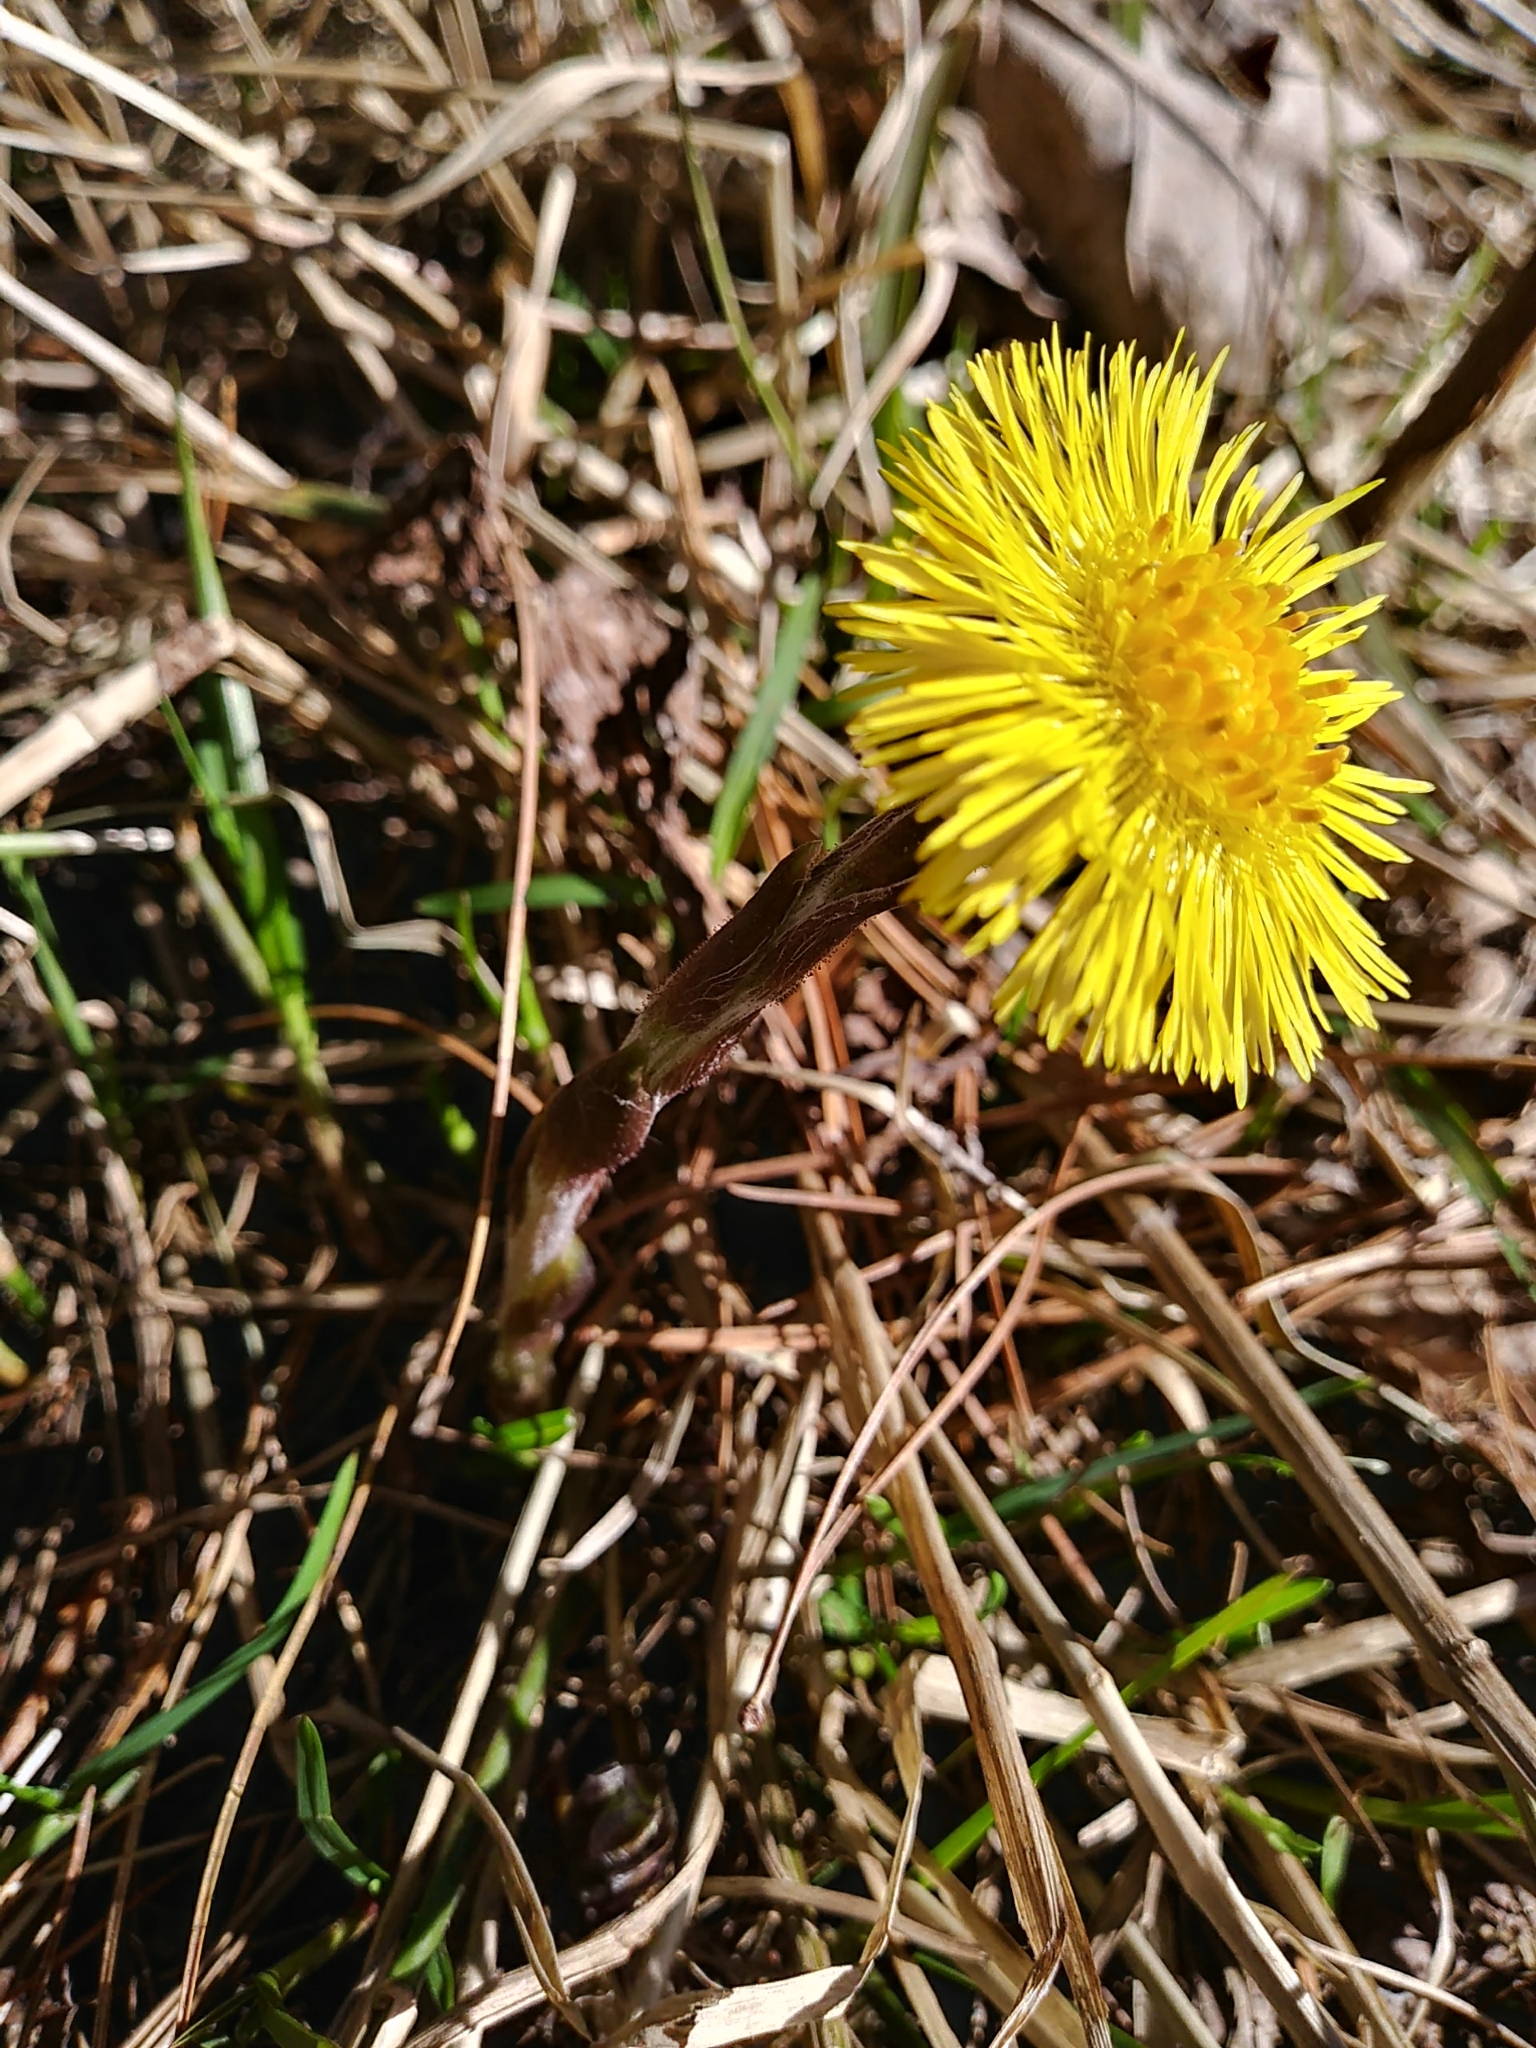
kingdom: Plantae
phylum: Tracheophyta
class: Magnoliopsida
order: Asterales
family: Asteraceae
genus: Tussilago
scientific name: Tussilago farfara
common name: Coltsfoot
